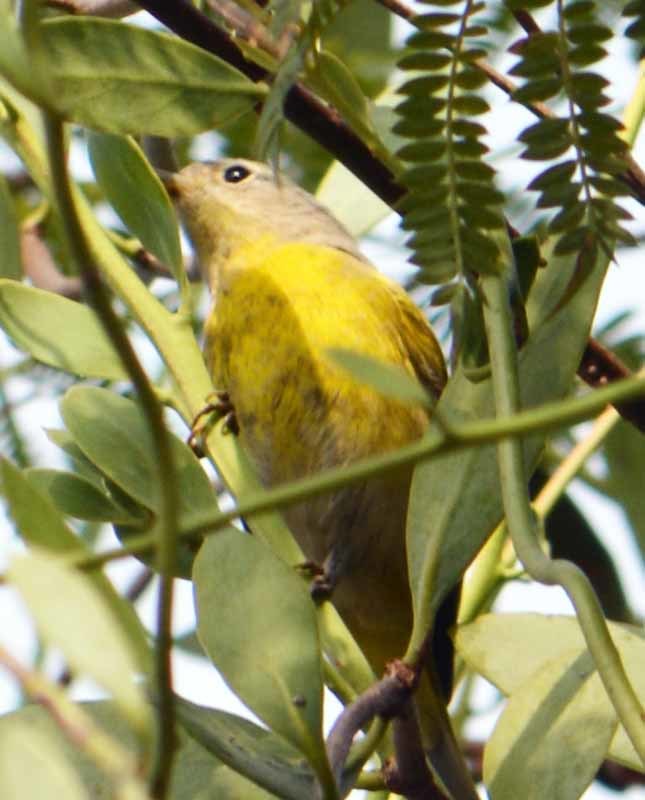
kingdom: Animalia
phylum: Chordata
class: Aves
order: Passeriformes
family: Parulidae
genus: Leiothlypis
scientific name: Leiothlypis ruficapilla
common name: Nashville warbler
